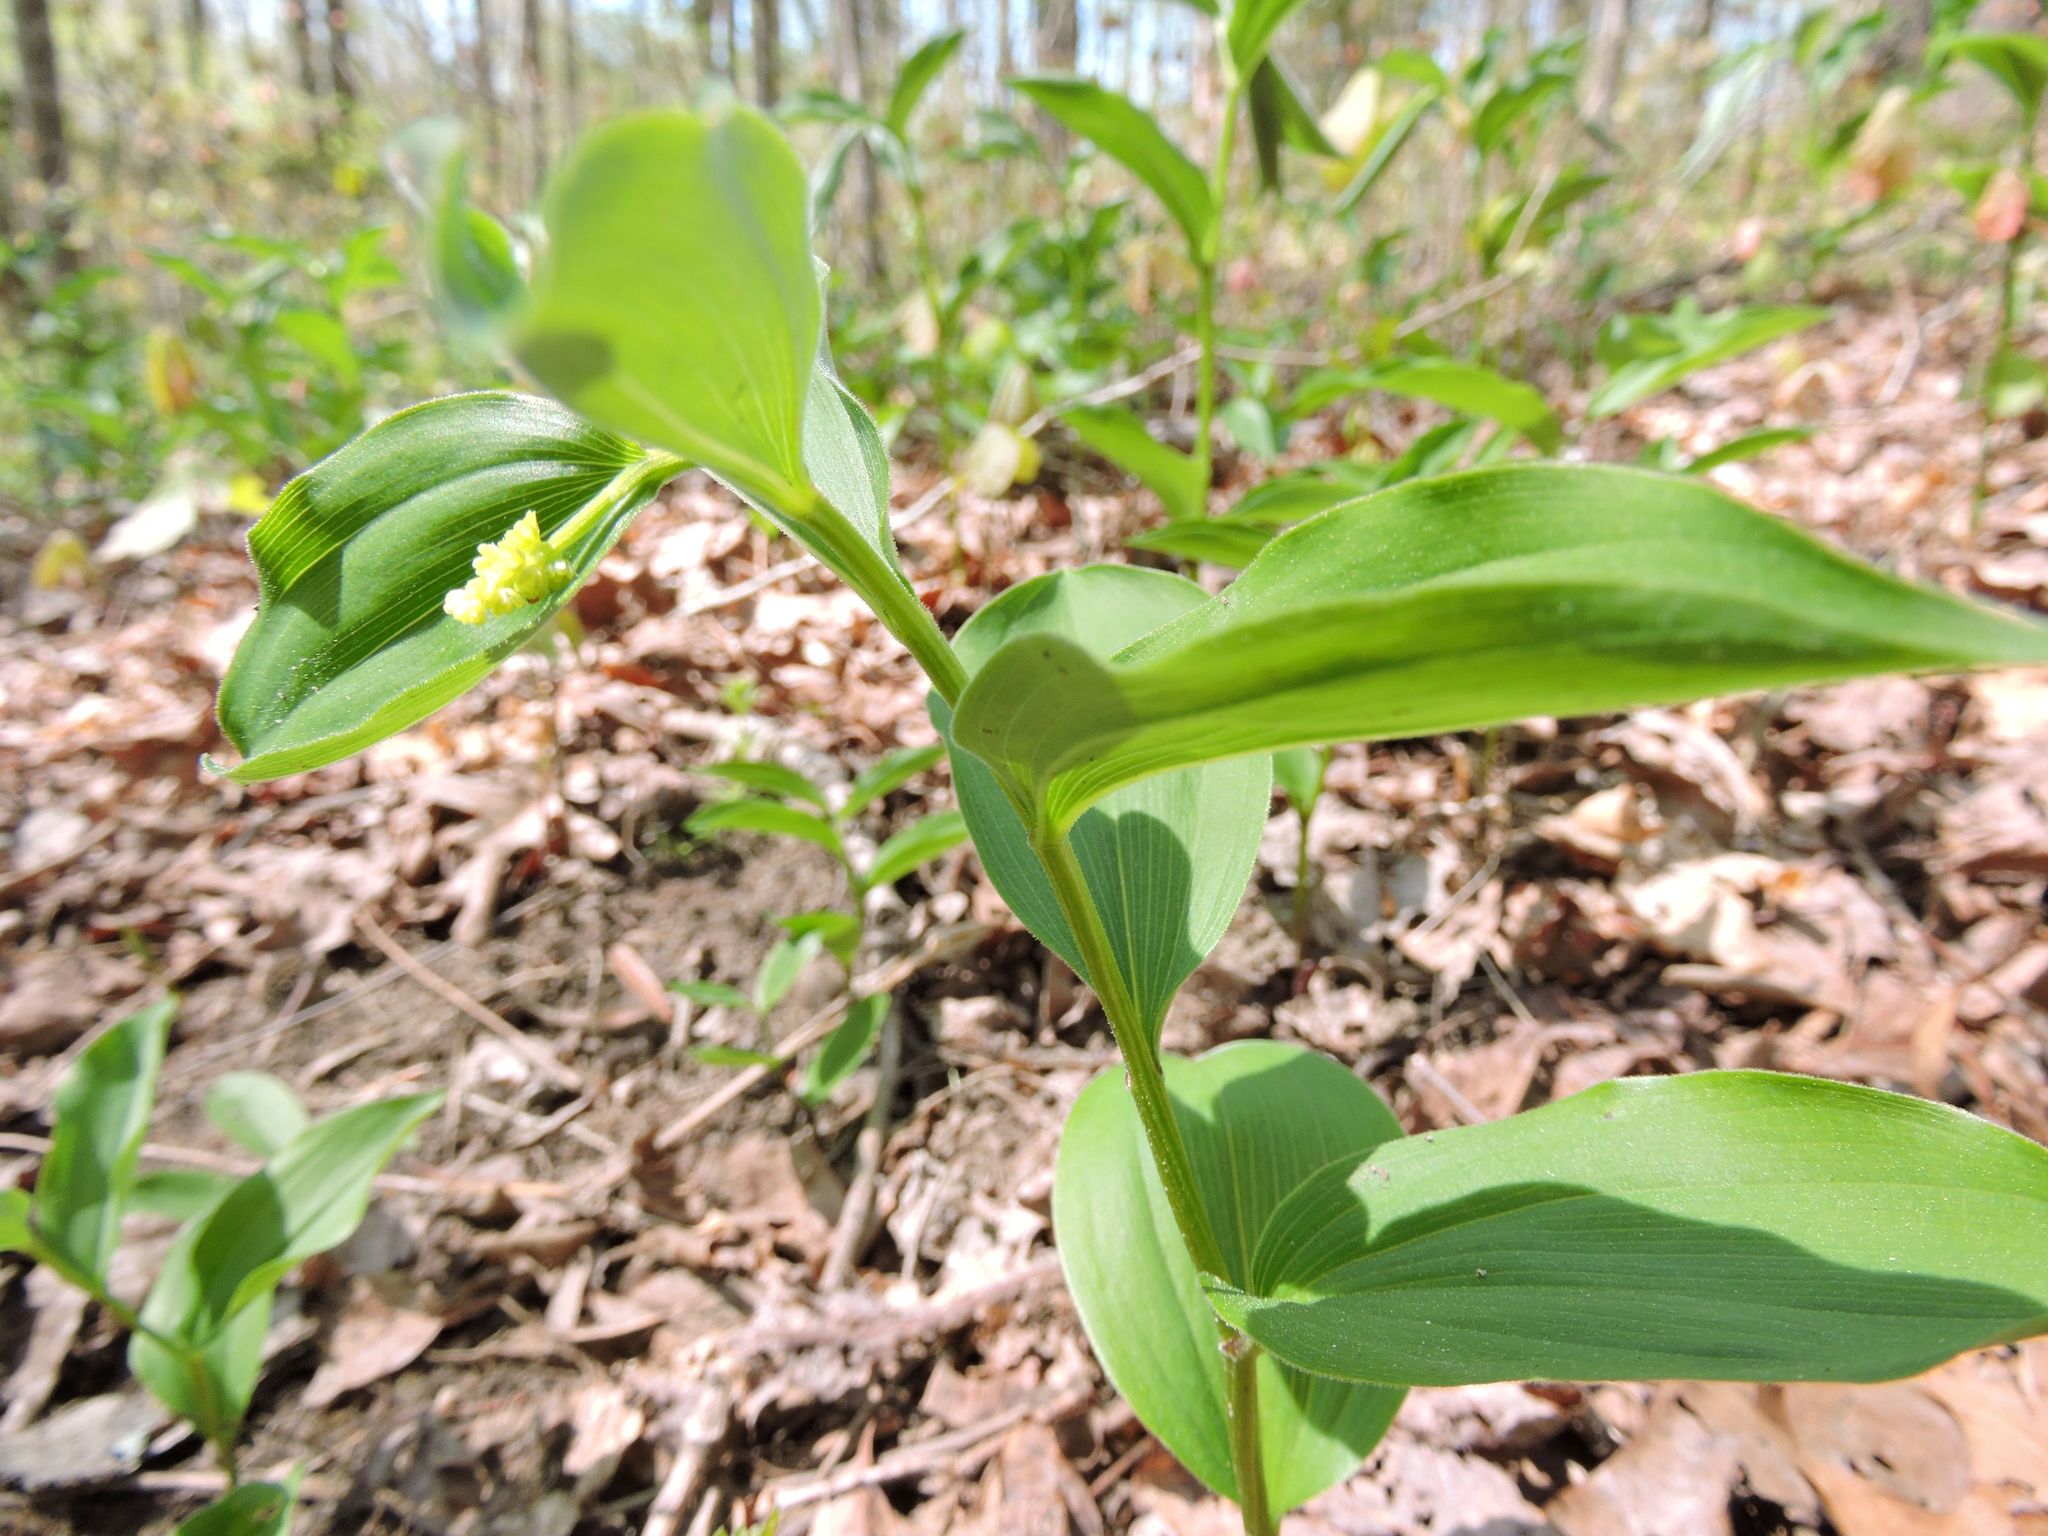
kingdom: Plantae
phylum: Tracheophyta
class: Liliopsida
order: Asparagales
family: Asparagaceae
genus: Maianthemum
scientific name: Maianthemum racemosum
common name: False spikenard
